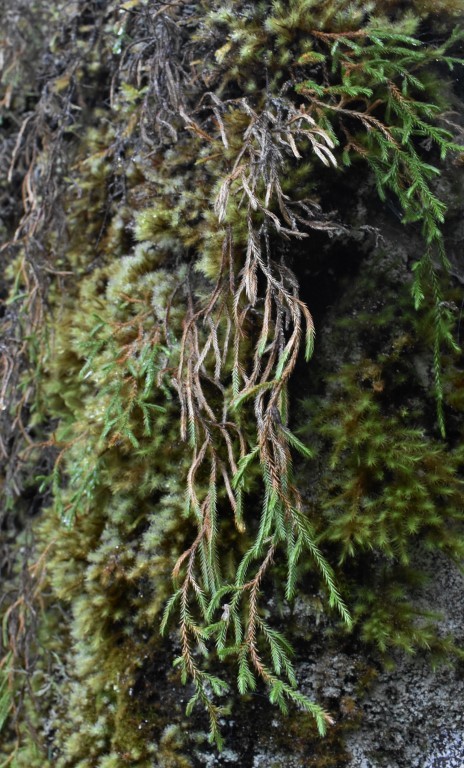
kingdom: Plantae
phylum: Tracheophyta
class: Lycopodiopsida
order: Selaginellales
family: Selaginellaceae
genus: Selaginella
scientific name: Selaginella oregana
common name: Oregon selaginella
